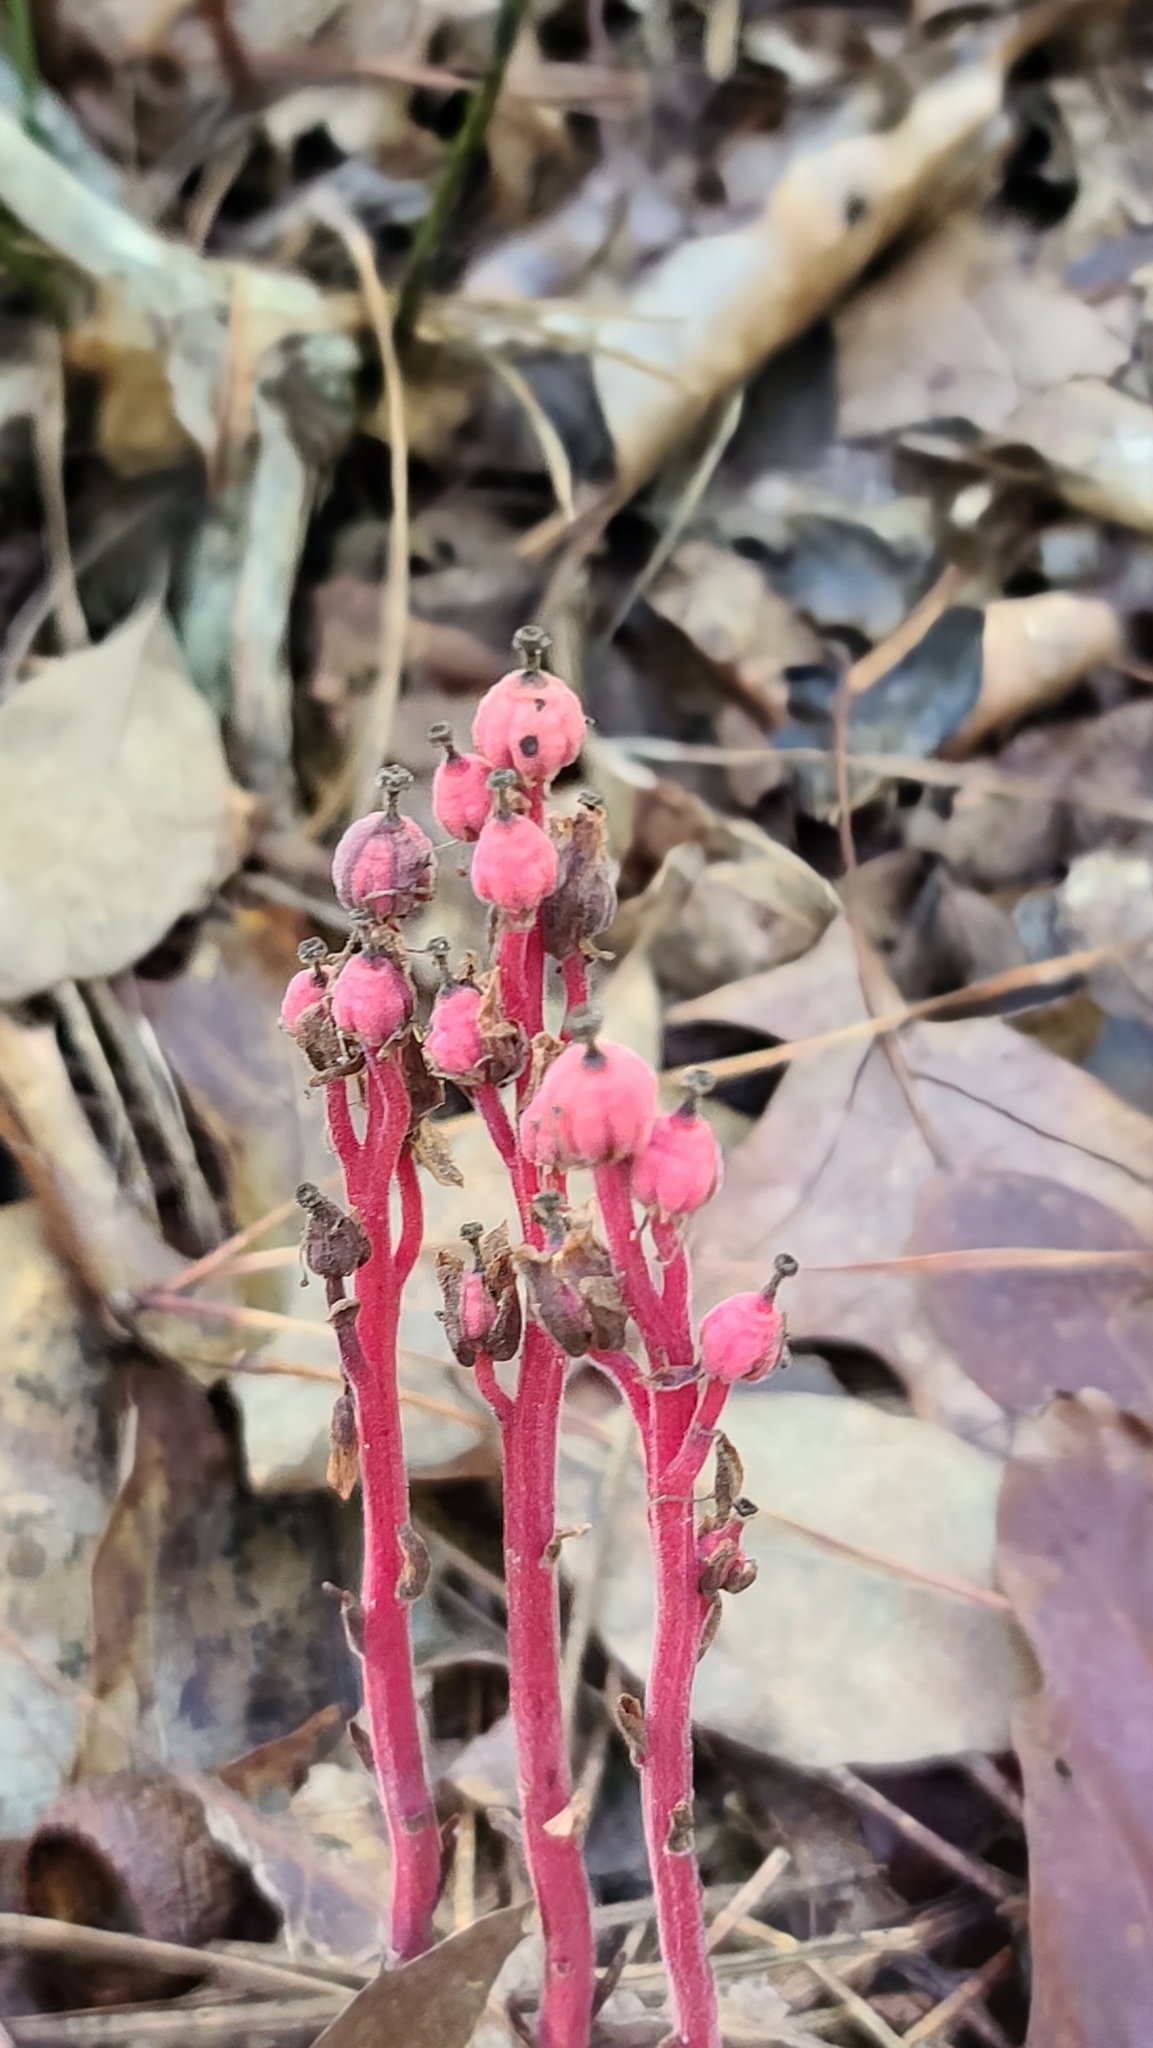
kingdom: Plantae
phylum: Tracheophyta
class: Magnoliopsida
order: Ericales
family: Ericaceae
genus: Hypopitys
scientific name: Hypopitys monotropa
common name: Yellow bird's-nest
